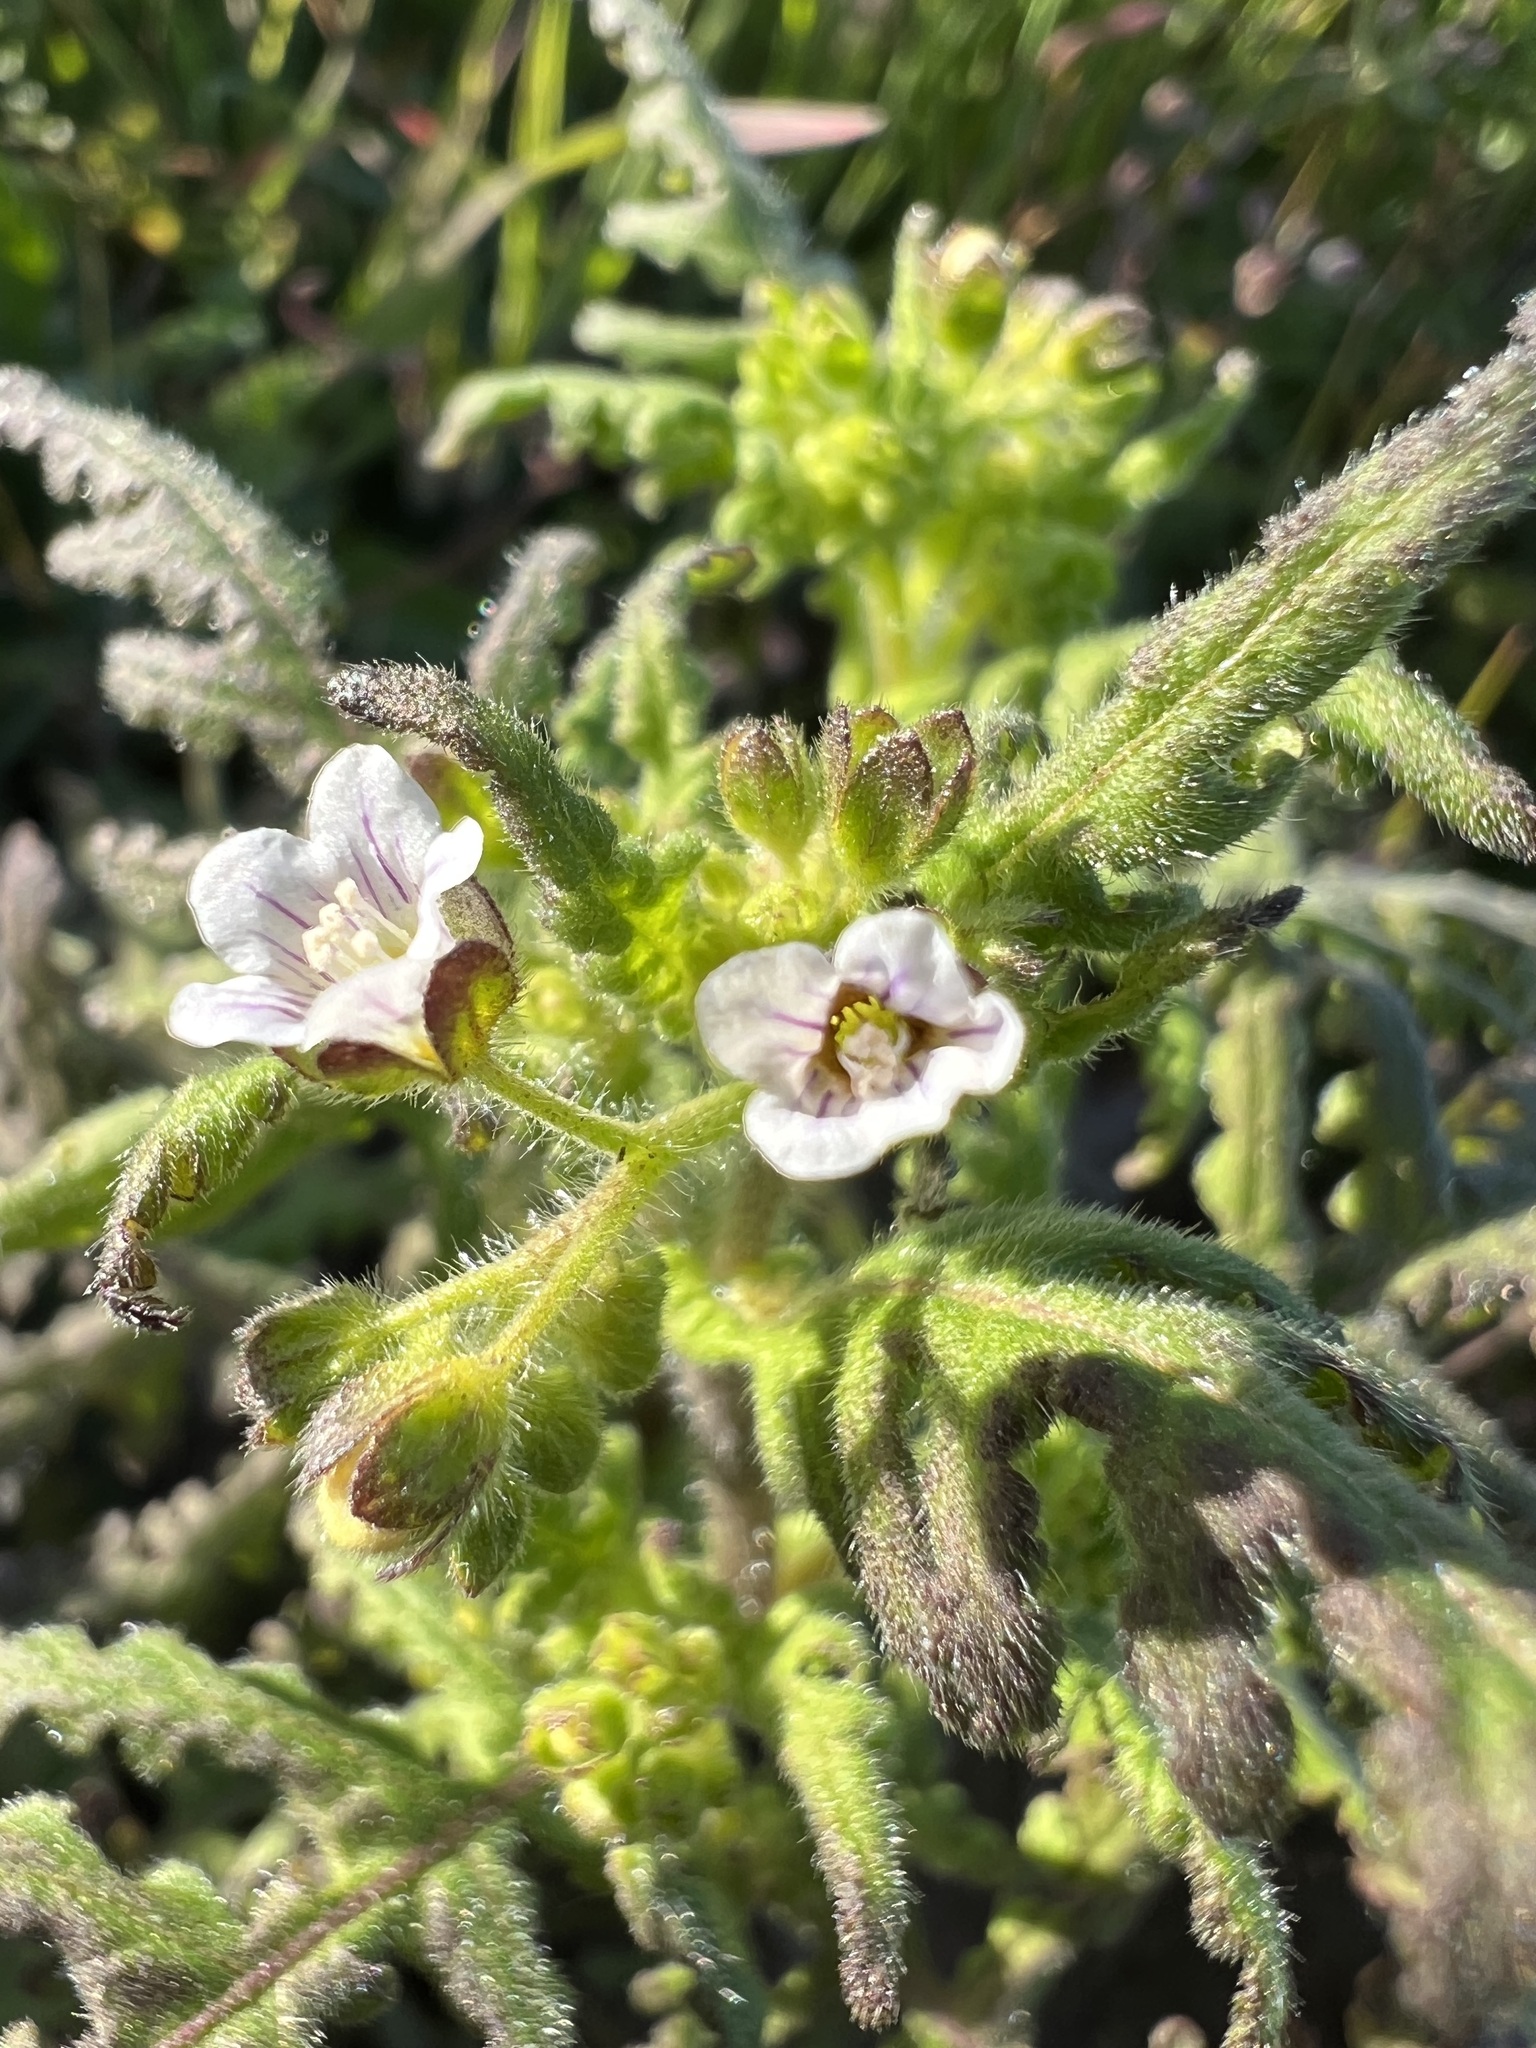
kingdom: Plantae
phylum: Tracheophyta
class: Magnoliopsida
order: Boraginales
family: Hydrophyllaceae
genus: Eucrypta
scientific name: Eucrypta chrysanthemifolia
